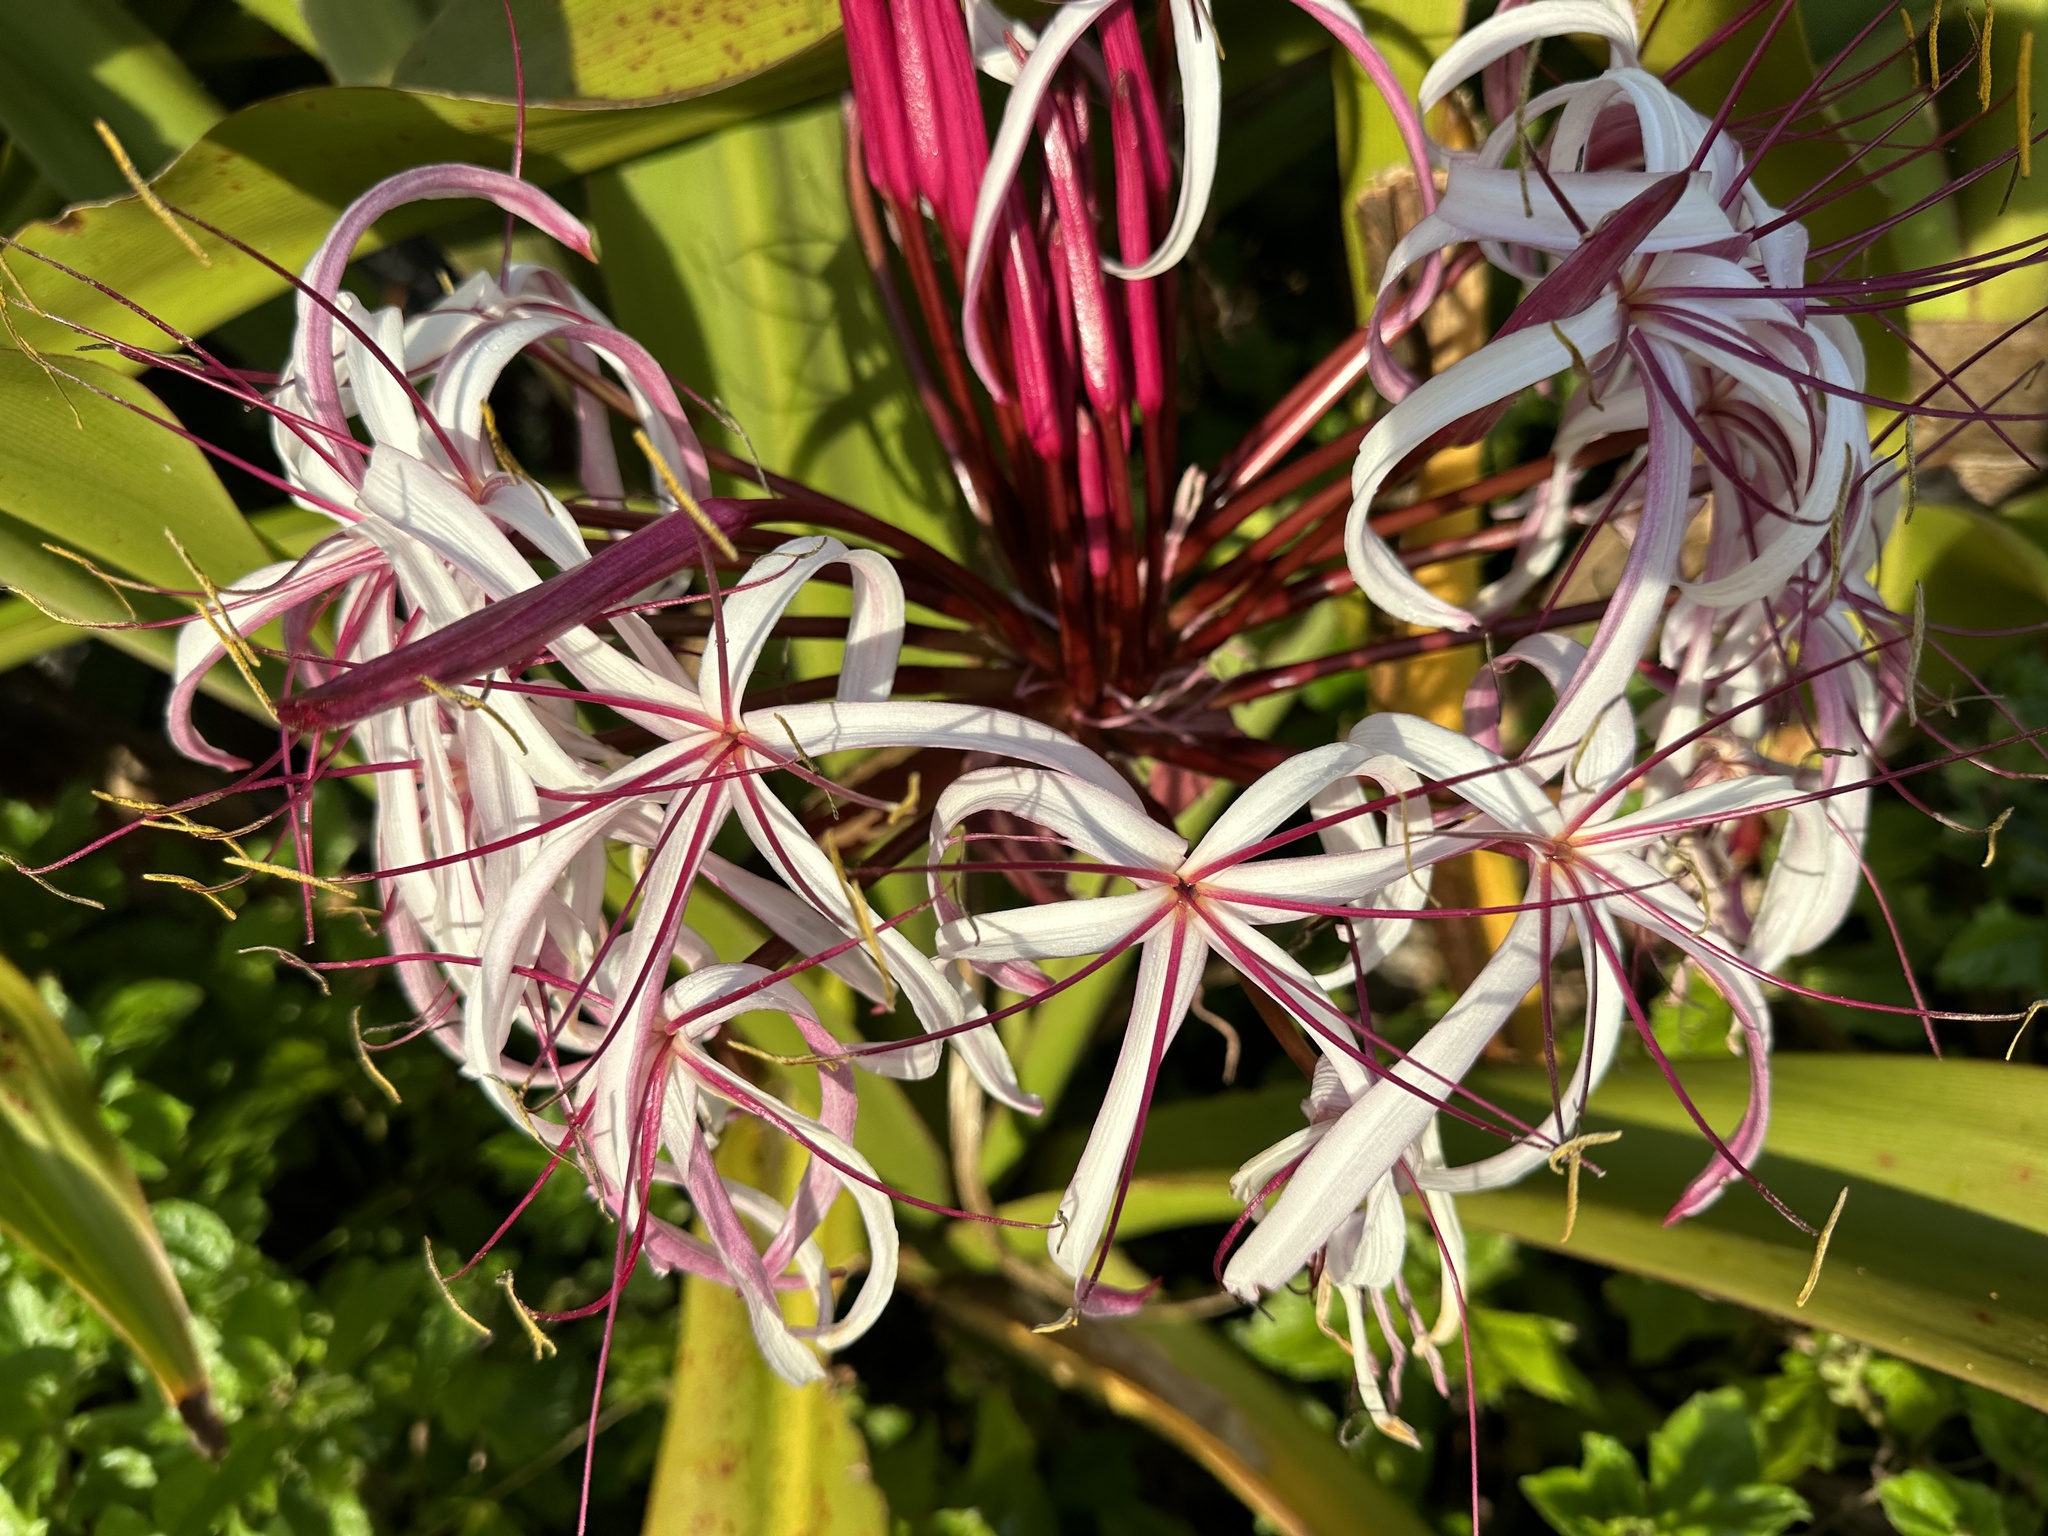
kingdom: Plantae
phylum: Tracheophyta
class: Liliopsida
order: Asparagales
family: Amaryllidaceae
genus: Crinum
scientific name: Crinum asiaticum
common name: Poisonbulb
